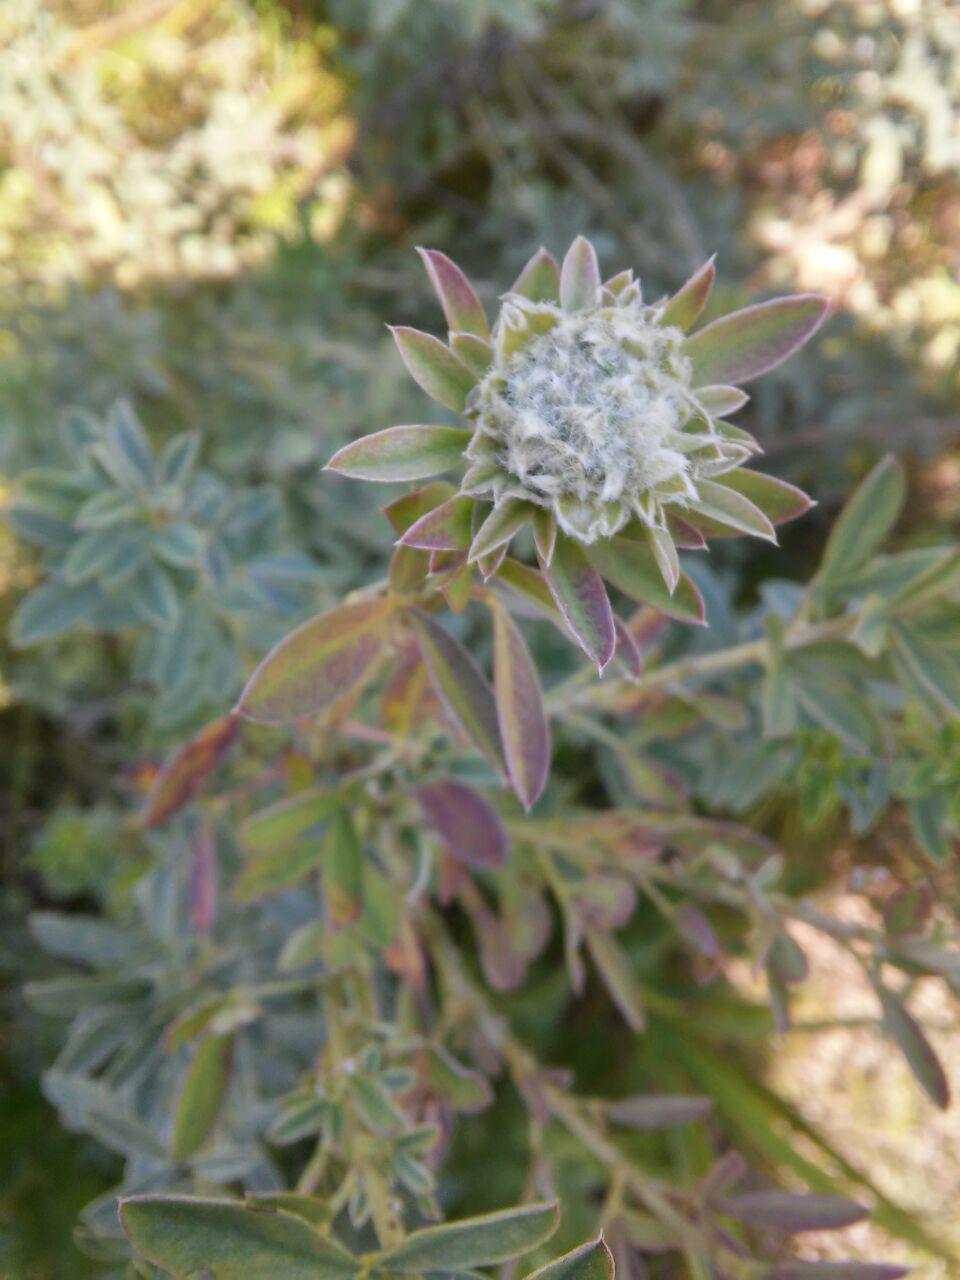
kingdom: Plantae
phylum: Tracheophyta
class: Magnoliopsida
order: Fabales
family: Fabaceae
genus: Chamaecytisus
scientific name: Chamaecytisus
